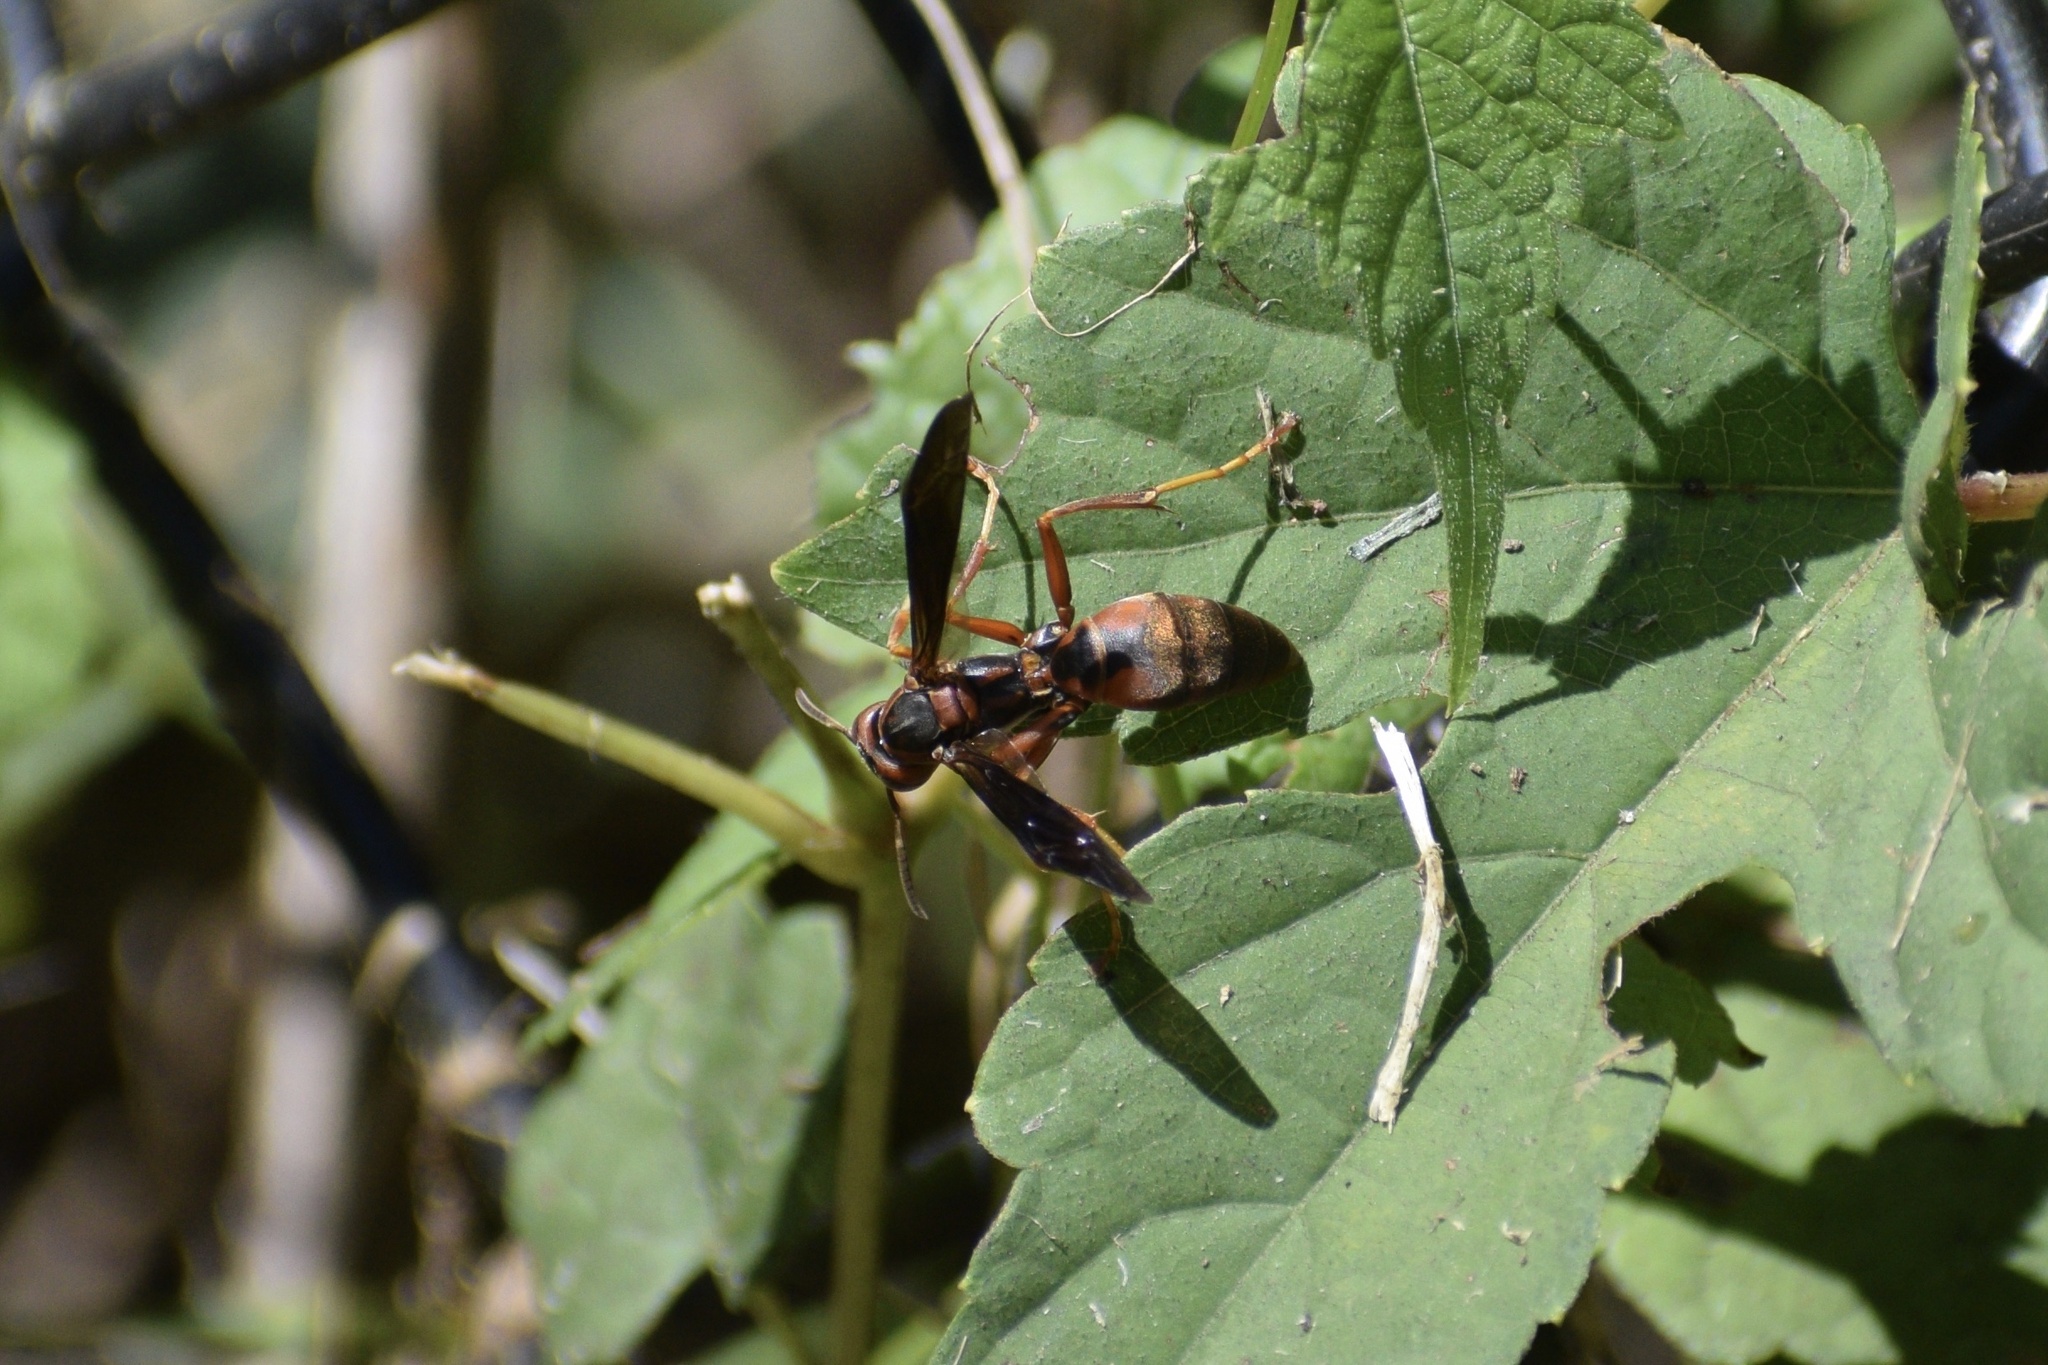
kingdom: Animalia
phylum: Arthropoda
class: Insecta
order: Hymenoptera
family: Eumenidae
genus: Polistes
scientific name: Polistes metricus
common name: Metric paper wasp
